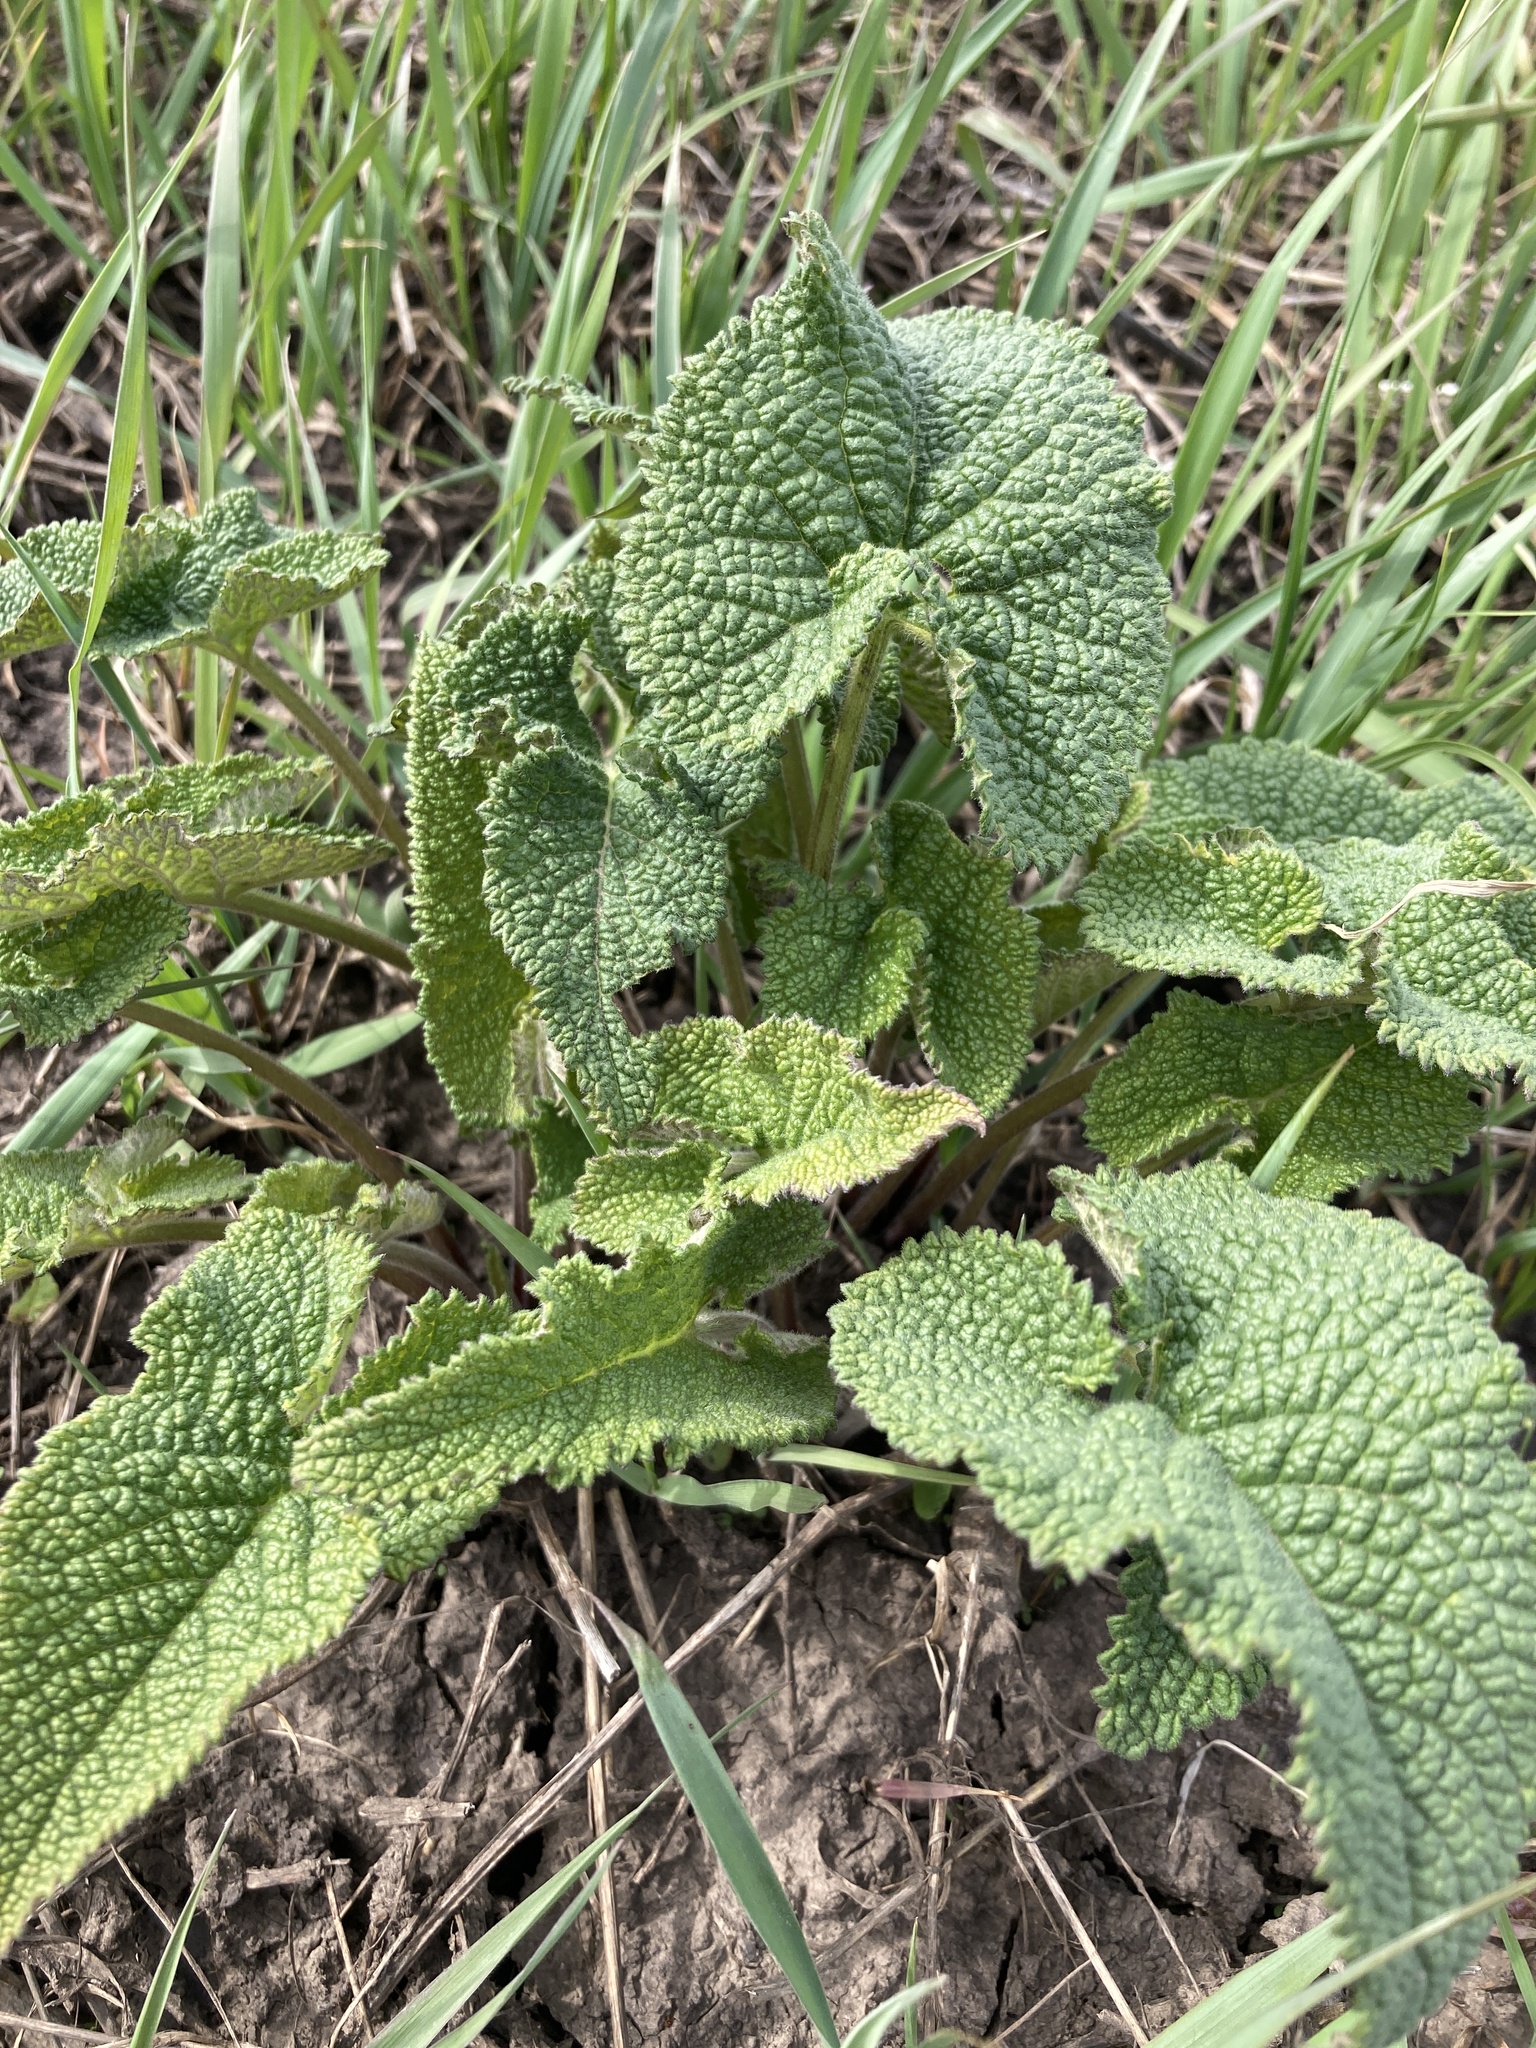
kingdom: Plantae
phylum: Tracheophyta
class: Magnoliopsida
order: Lamiales
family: Lamiaceae
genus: Phlomoides
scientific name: Phlomoides tuberosa
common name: Tuberous jerusalem sage
